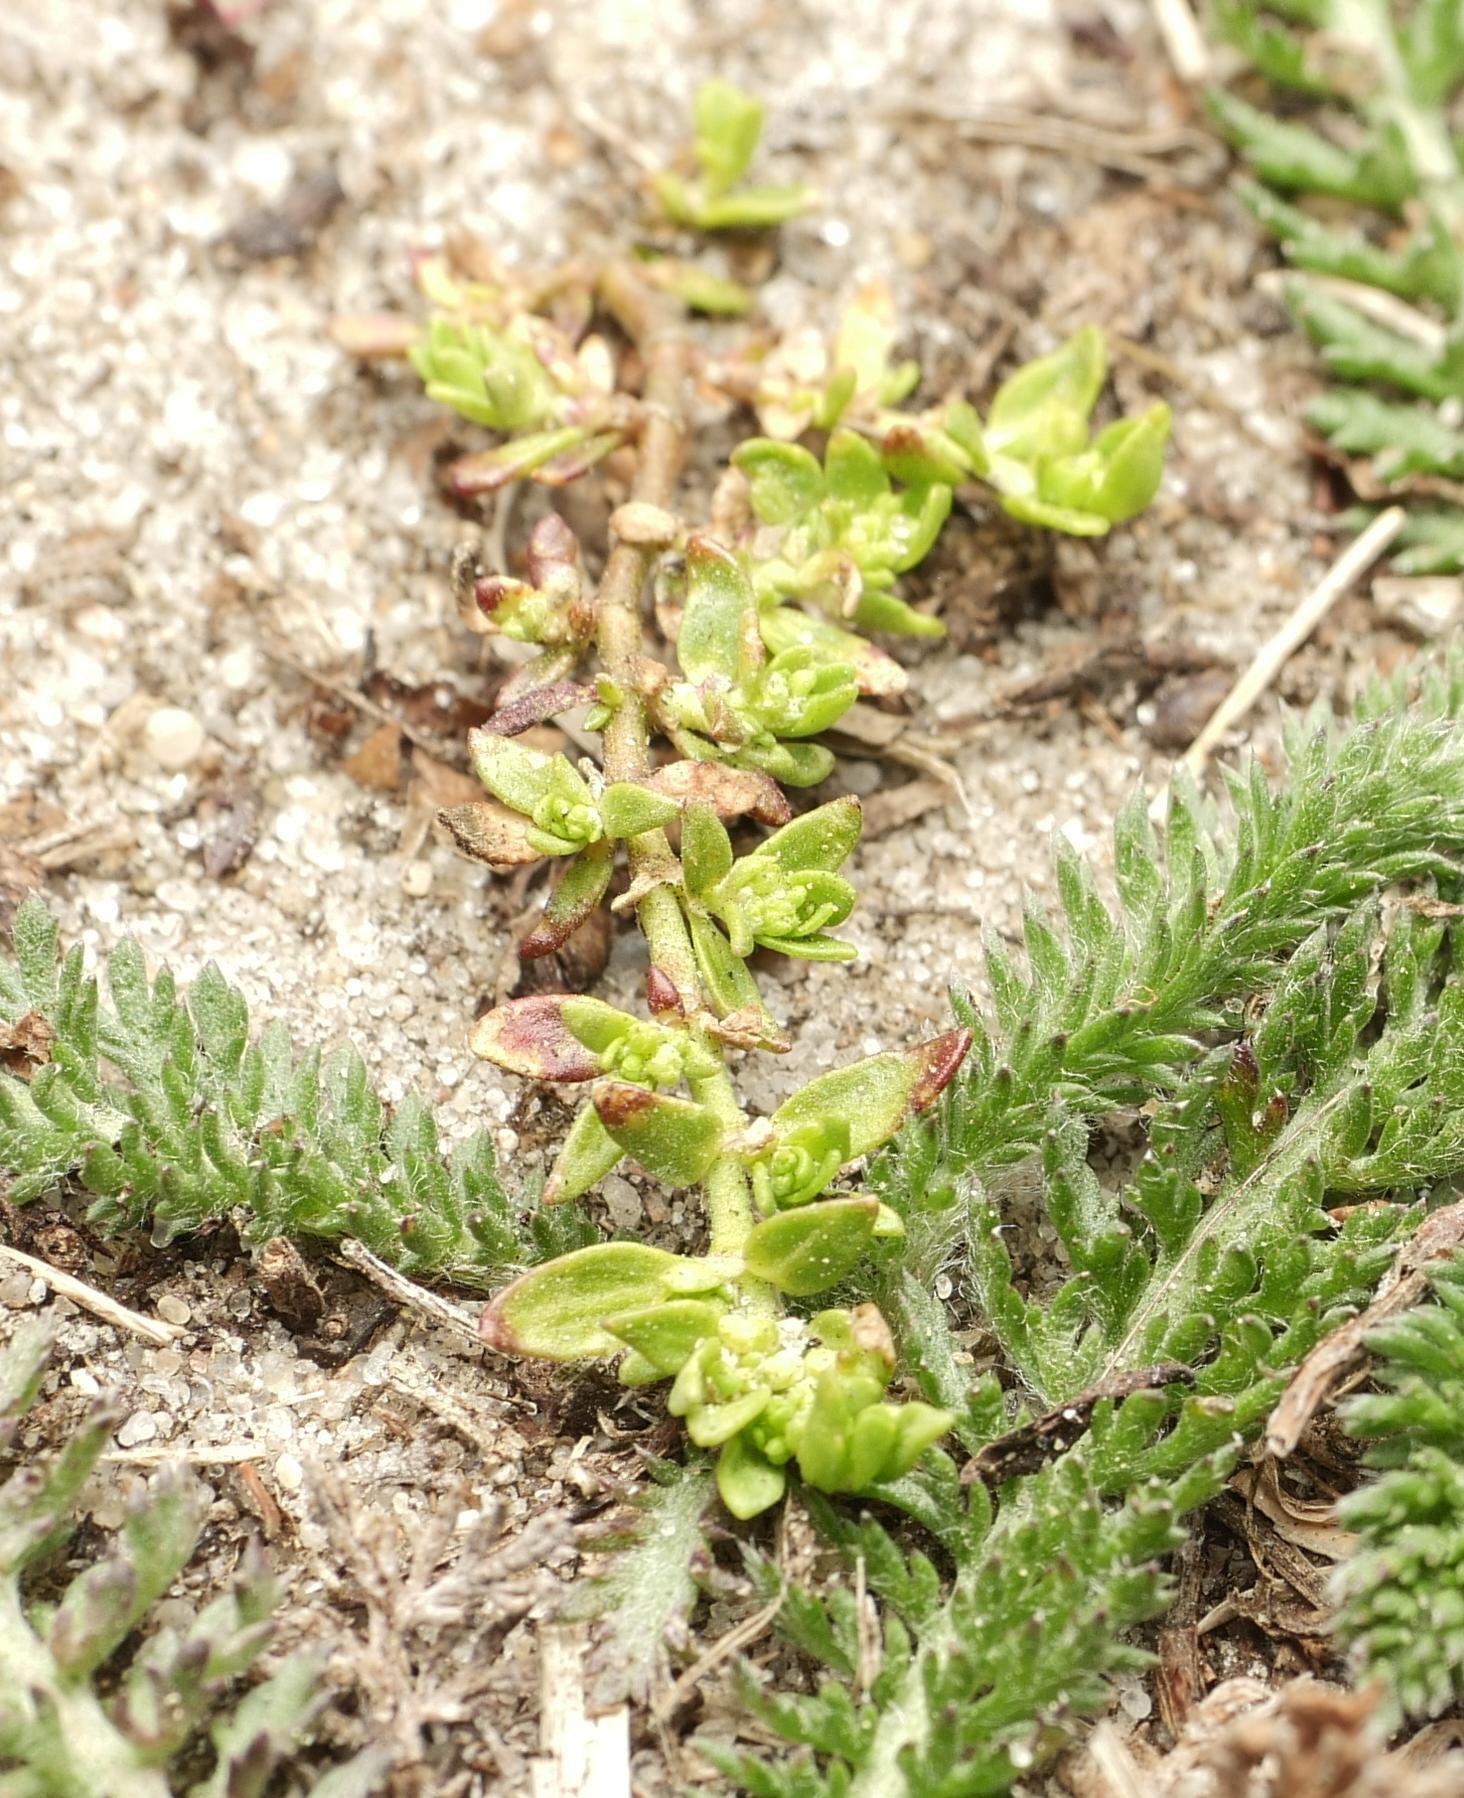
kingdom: Plantae
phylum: Tracheophyta
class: Magnoliopsida
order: Caryophyllales
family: Caryophyllaceae
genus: Herniaria
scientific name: Herniaria glabra
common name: Smooth rupturewort
